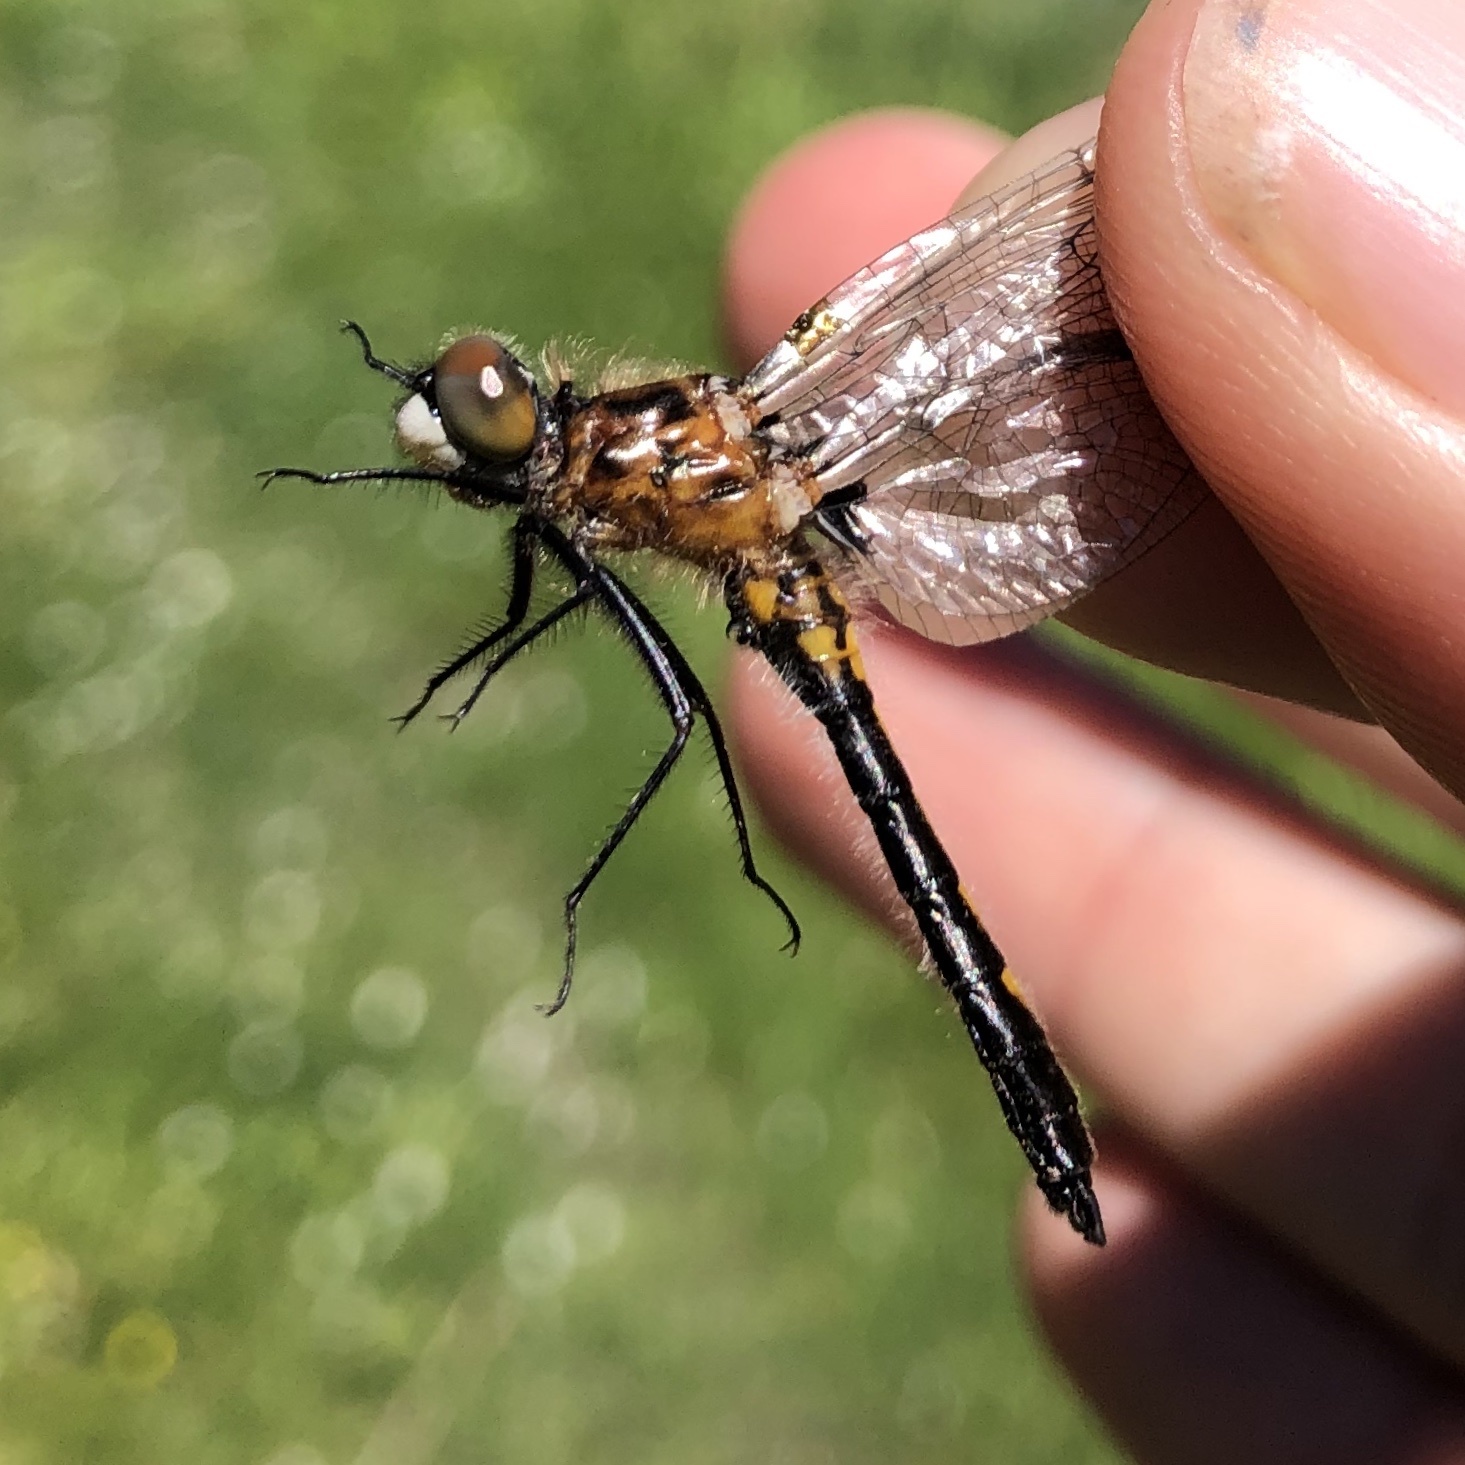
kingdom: Animalia
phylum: Arthropoda
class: Insecta
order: Odonata
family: Libellulidae
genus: Leucorrhinia
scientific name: Leucorrhinia intacta
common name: Dot-tailed whiteface
